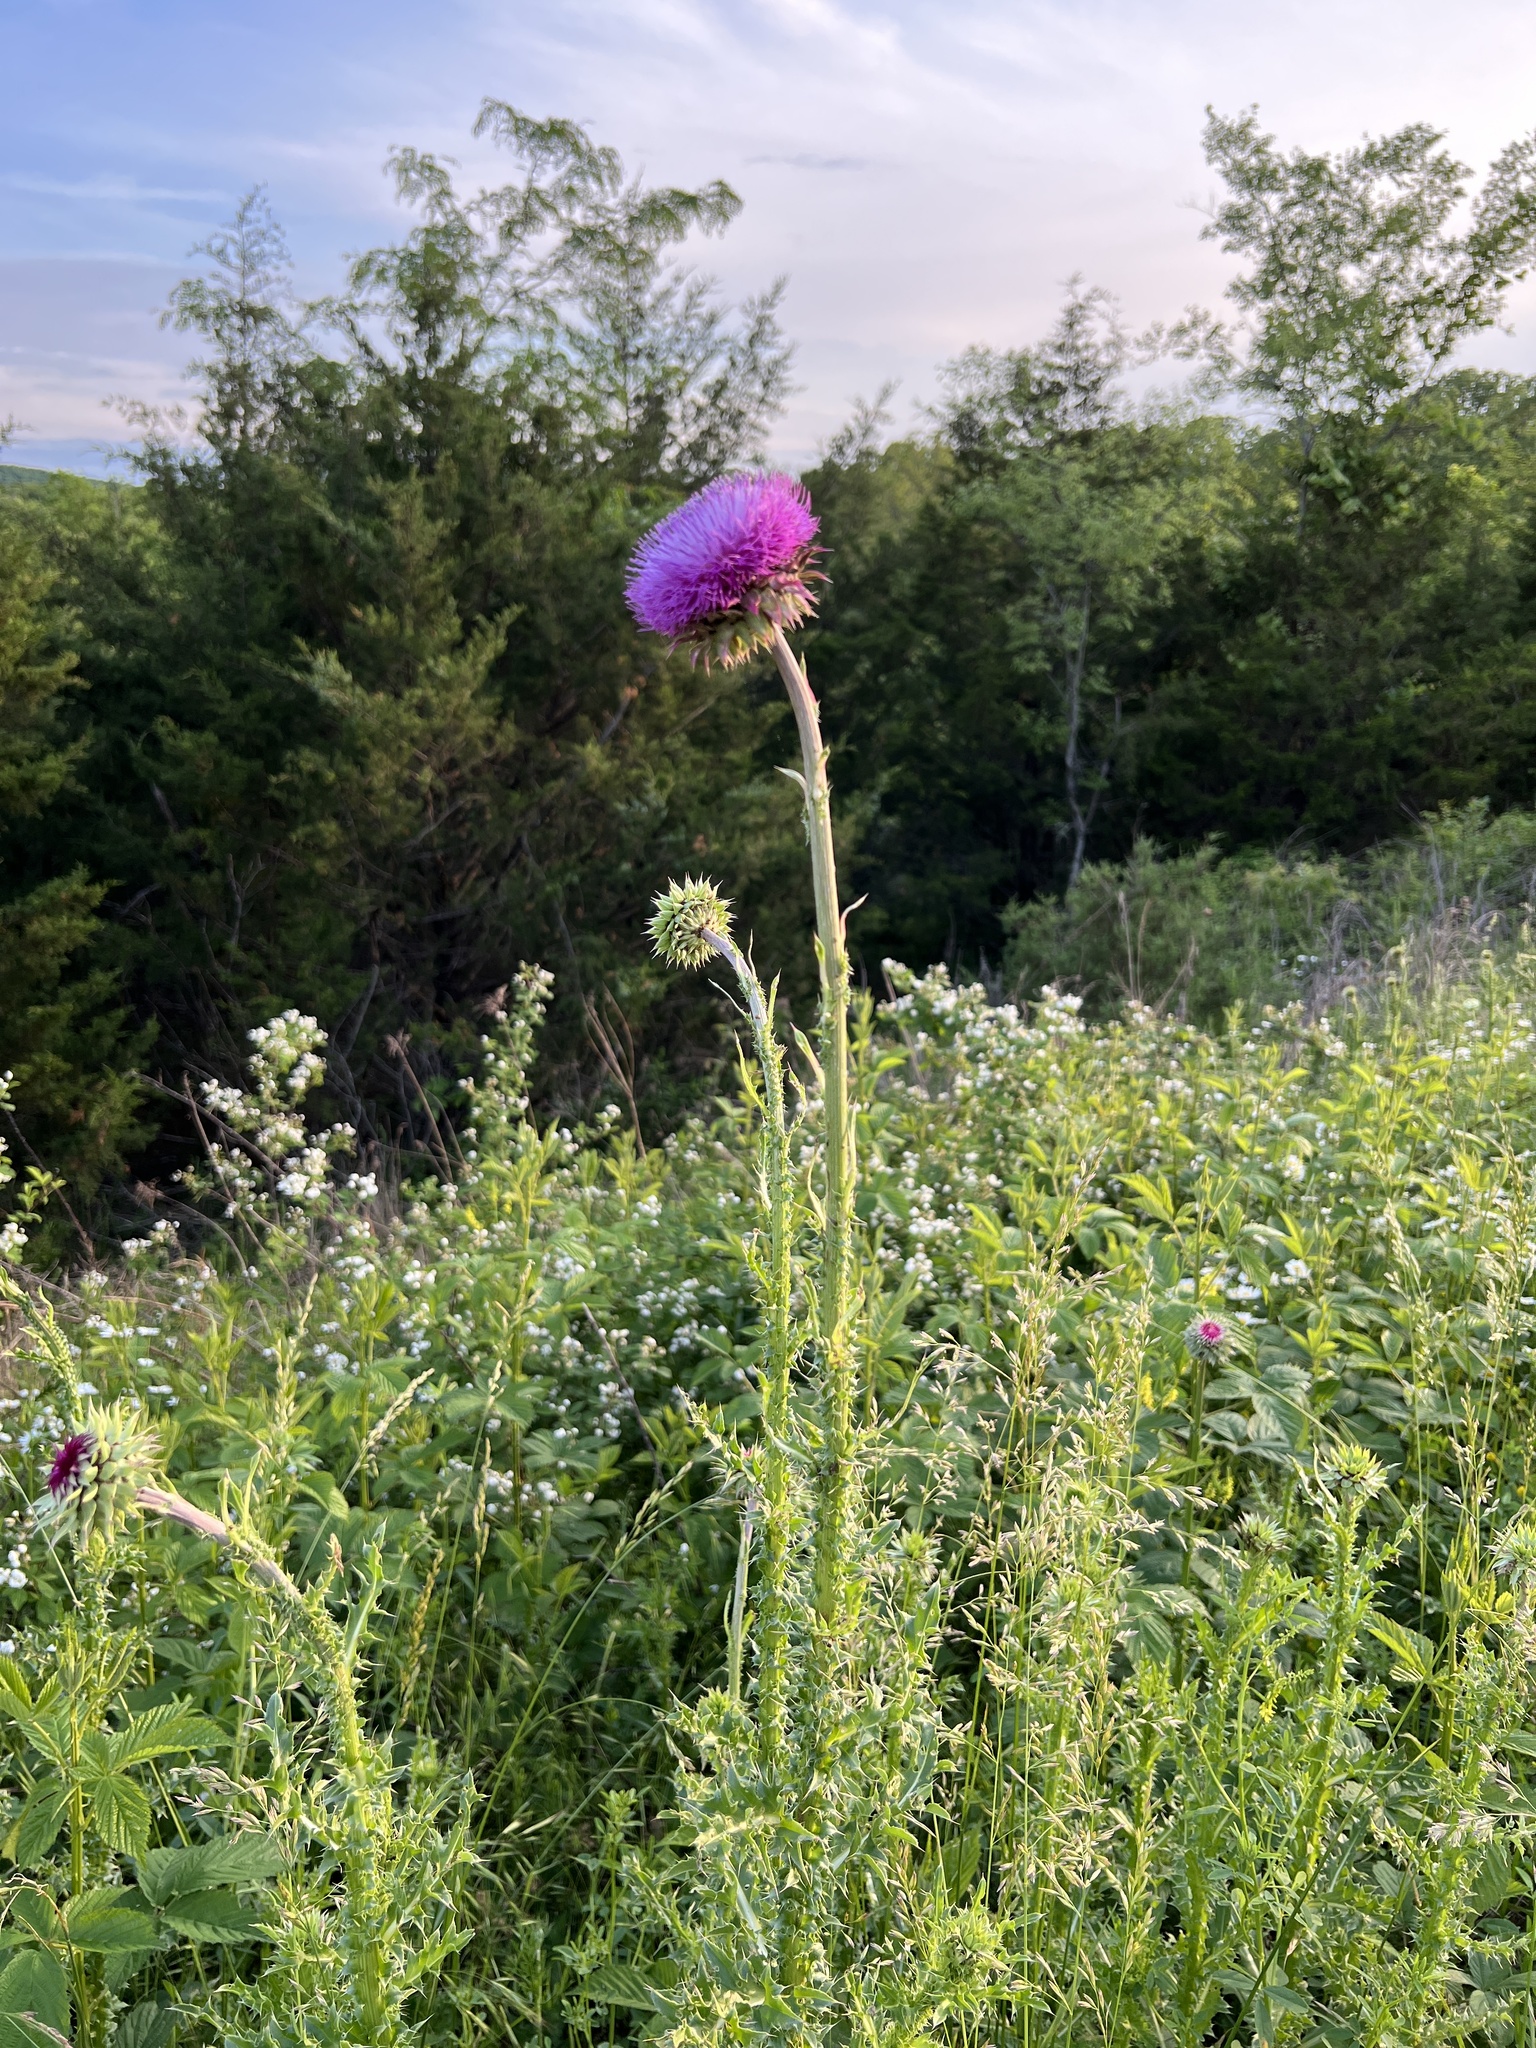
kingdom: Plantae
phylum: Tracheophyta
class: Magnoliopsida
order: Asterales
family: Asteraceae
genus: Carduus
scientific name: Carduus nutans
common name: Musk thistle
